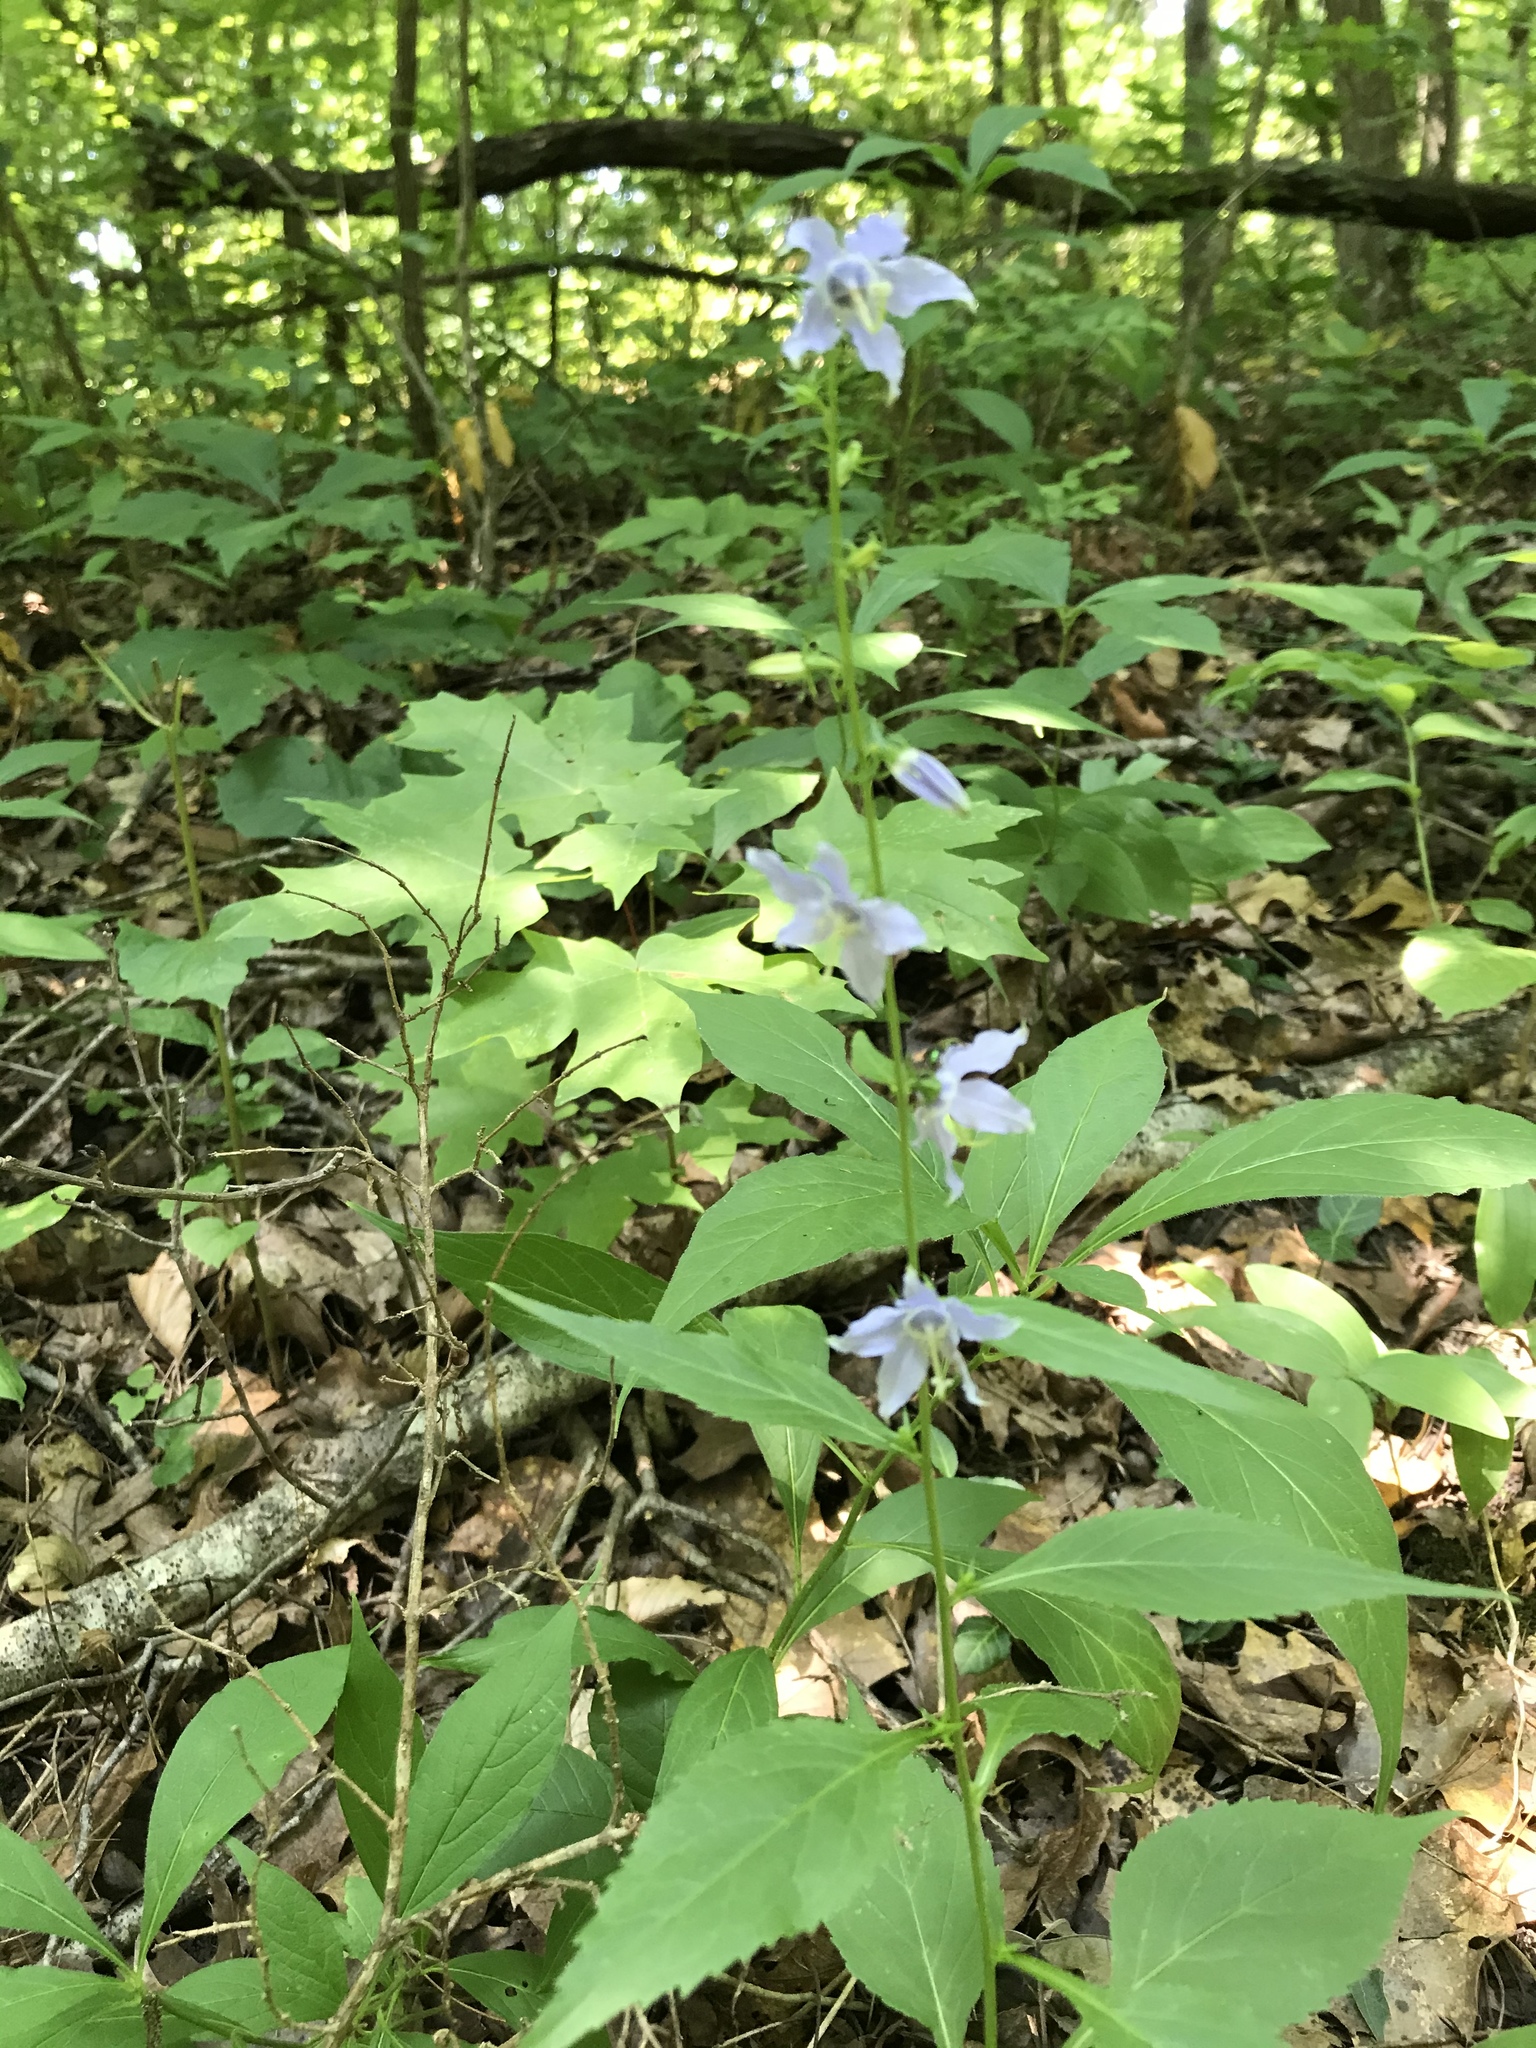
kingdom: Plantae
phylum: Tracheophyta
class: Magnoliopsida
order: Asterales
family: Campanulaceae
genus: Campanulastrum
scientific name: Campanulastrum americanum
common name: American bellflower
